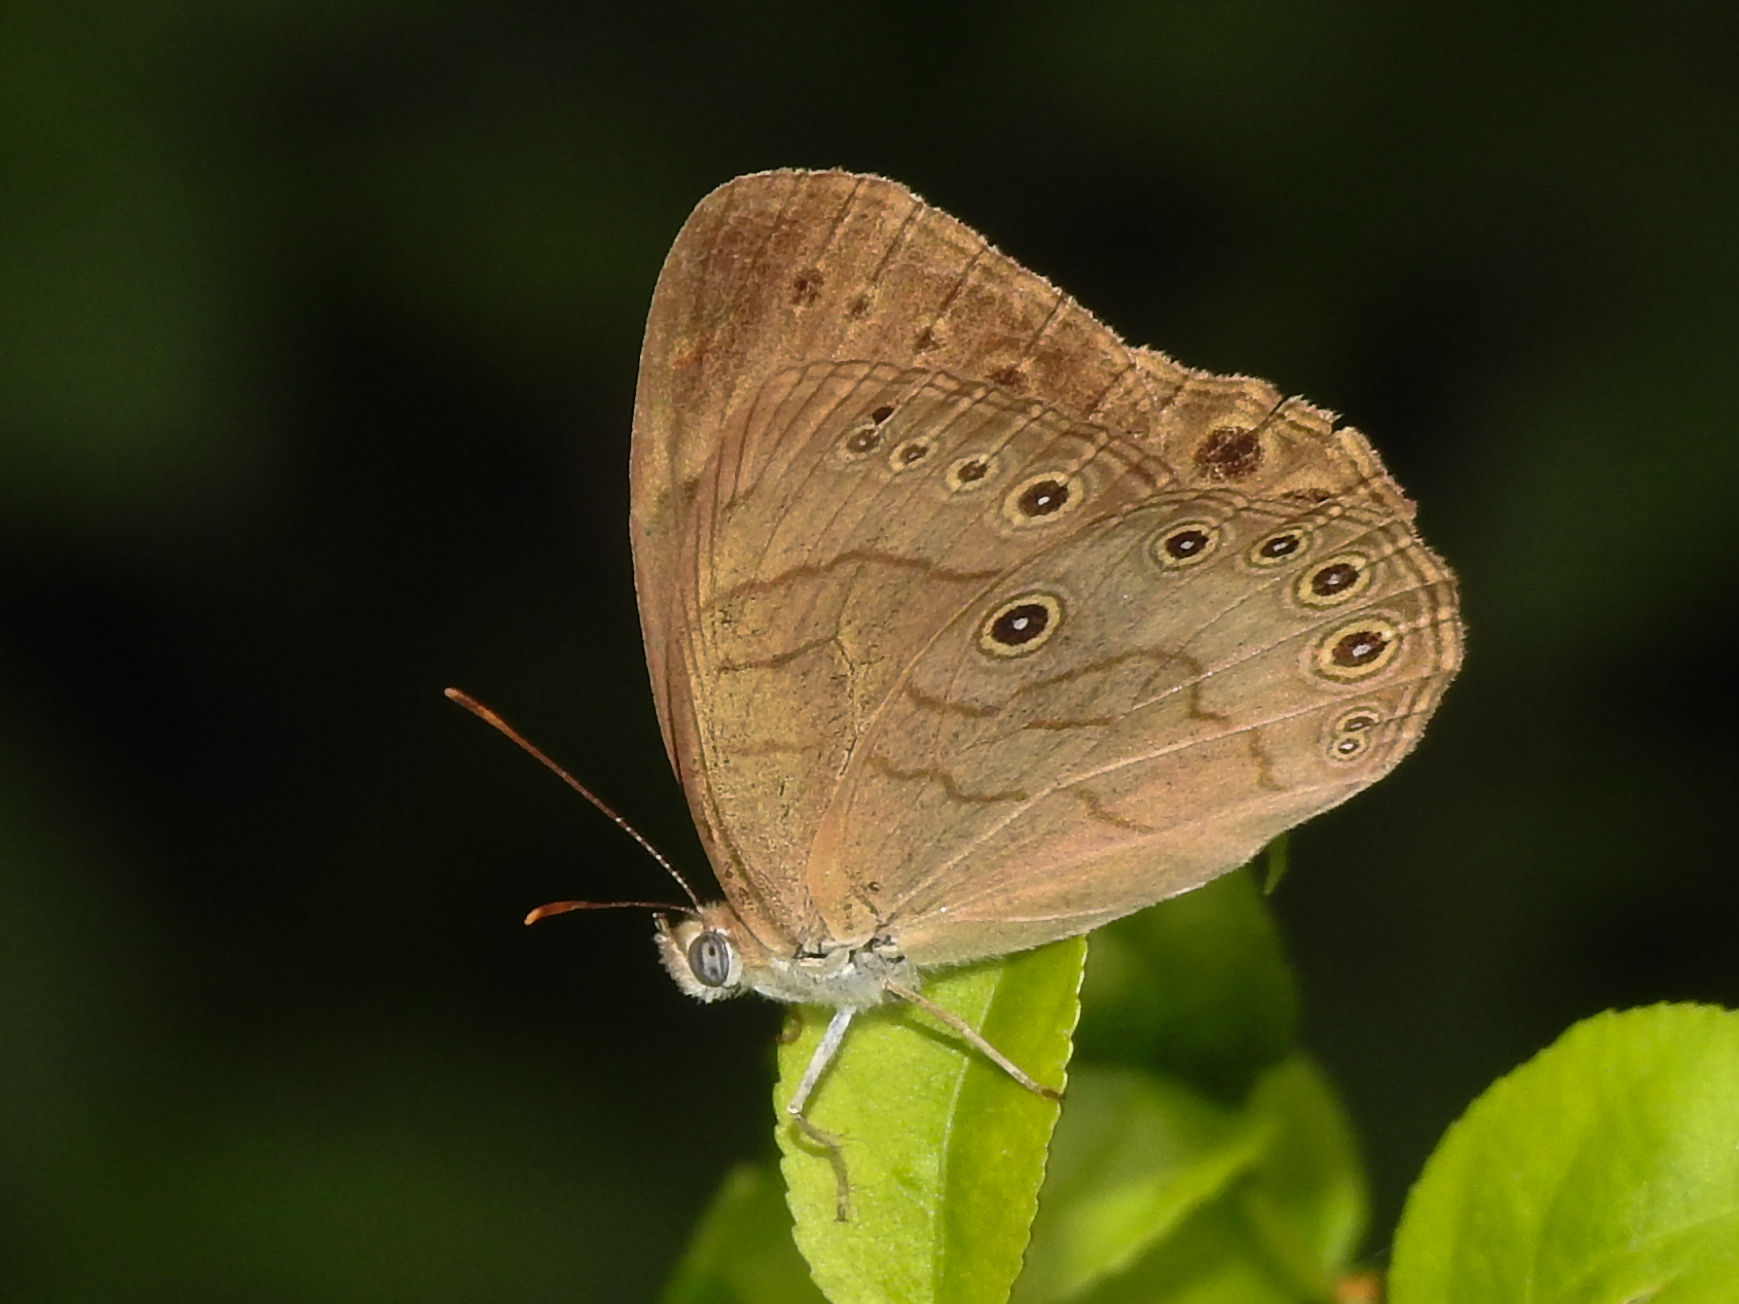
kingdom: Animalia
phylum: Arthropoda
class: Insecta
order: Lepidoptera
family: Nymphalidae
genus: Lethe
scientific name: Lethe eurydice
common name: Eyed brown
